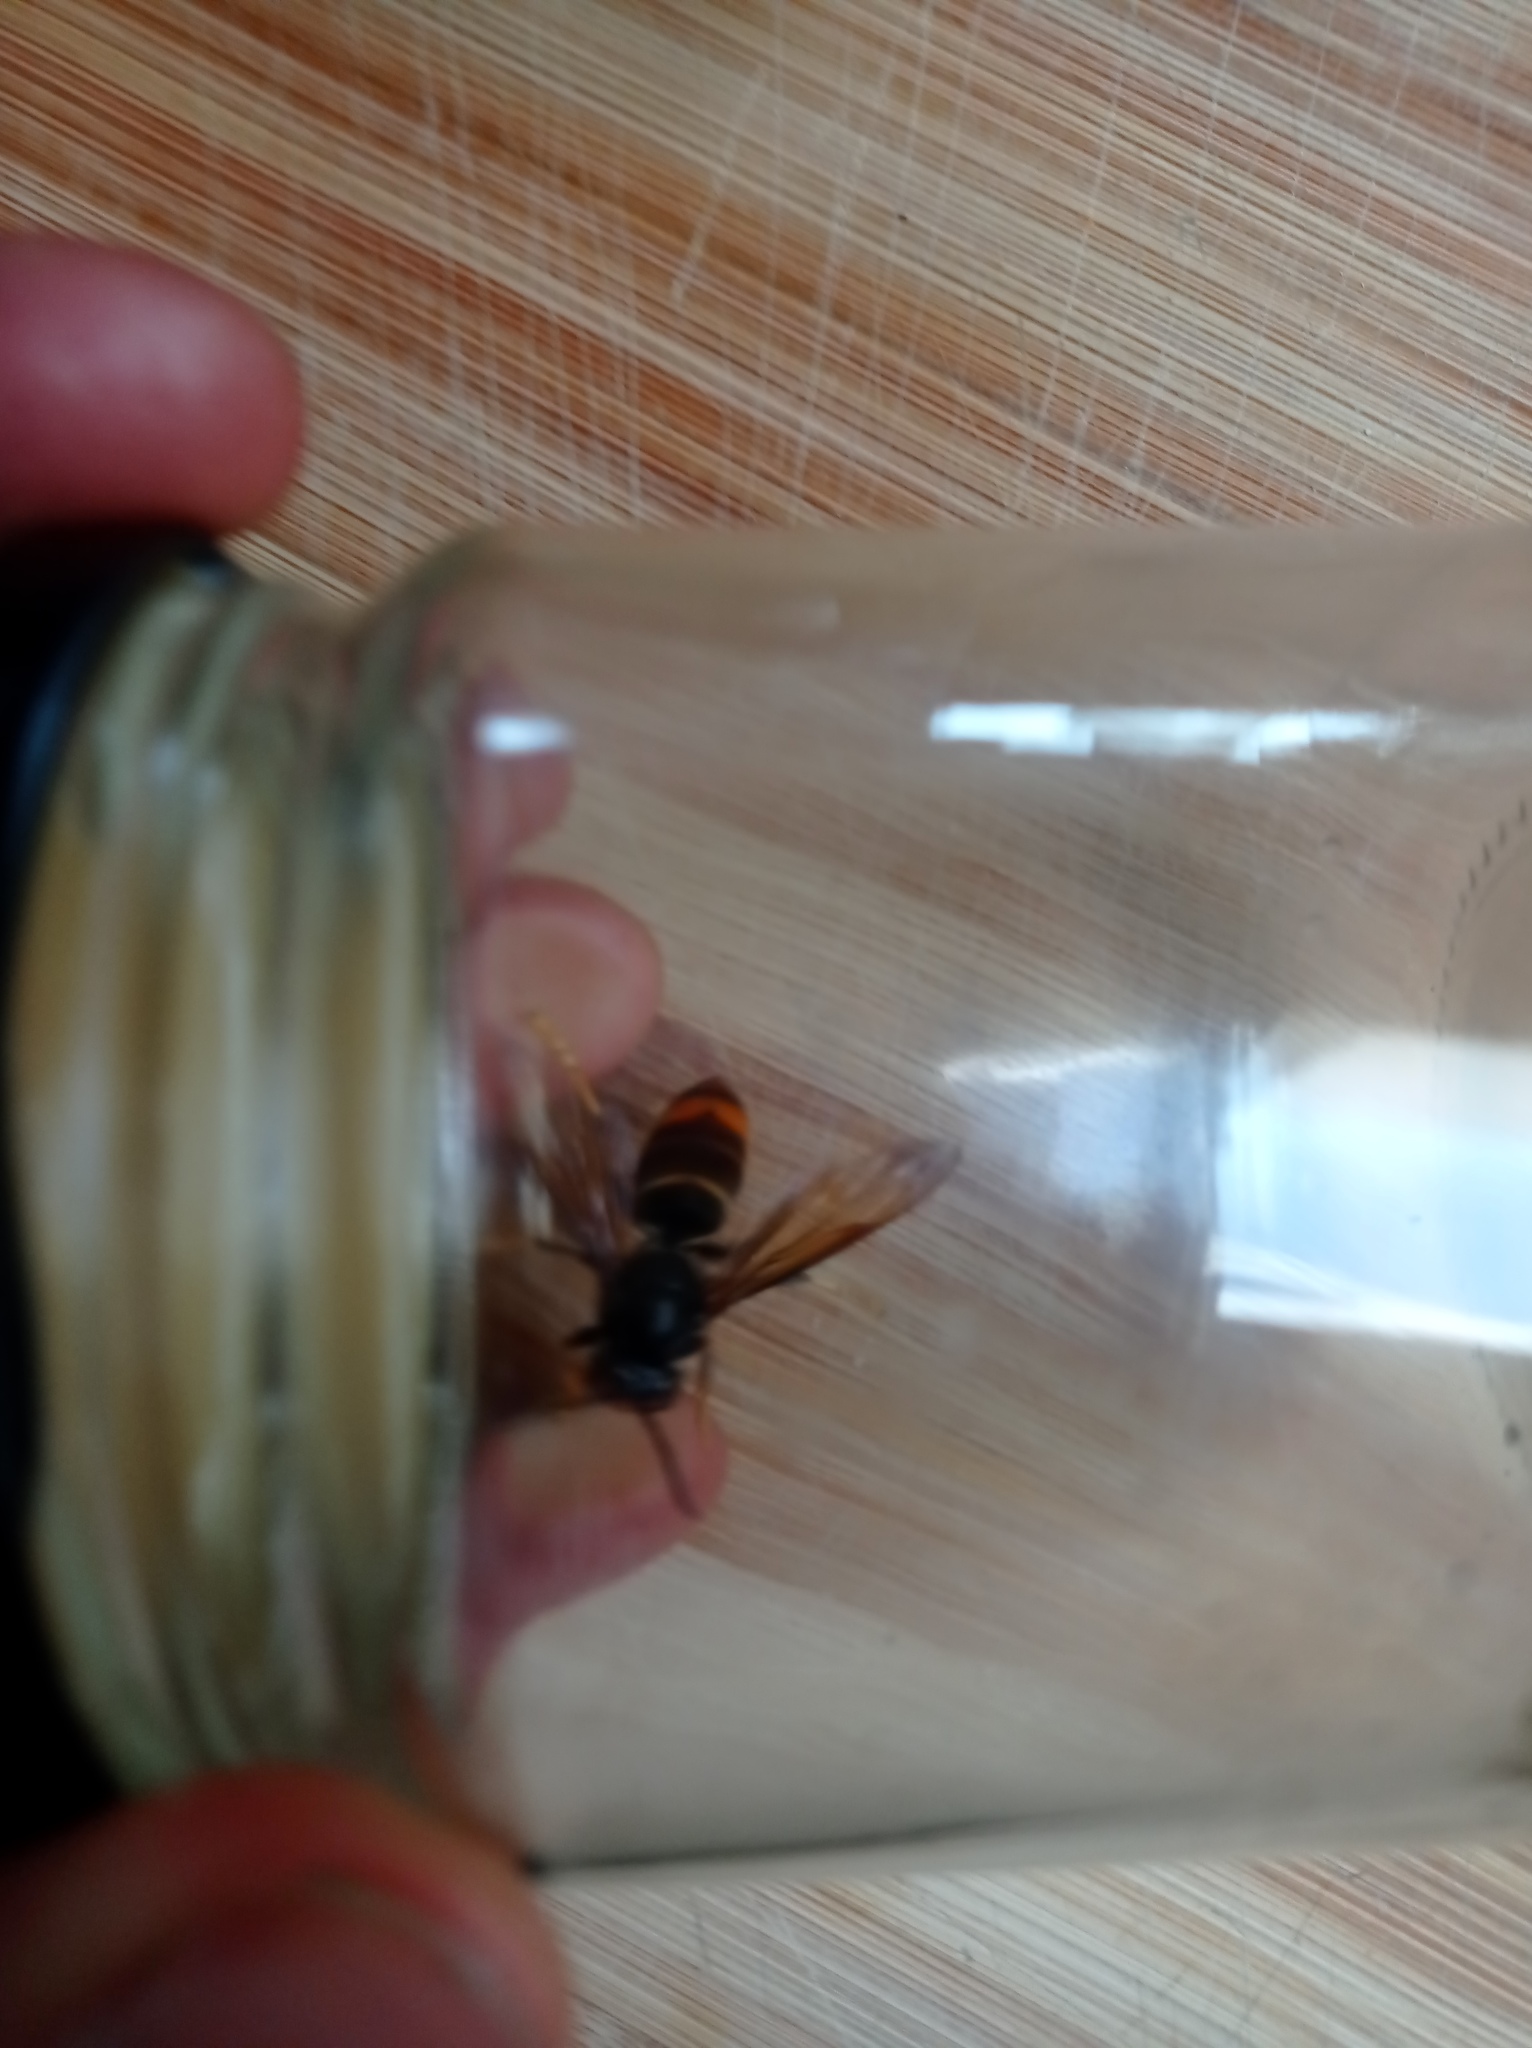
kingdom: Animalia
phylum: Arthropoda
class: Insecta
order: Hymenoptera
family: Vespidae
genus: Vespa
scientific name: Vespa velutina
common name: Asian hornet
